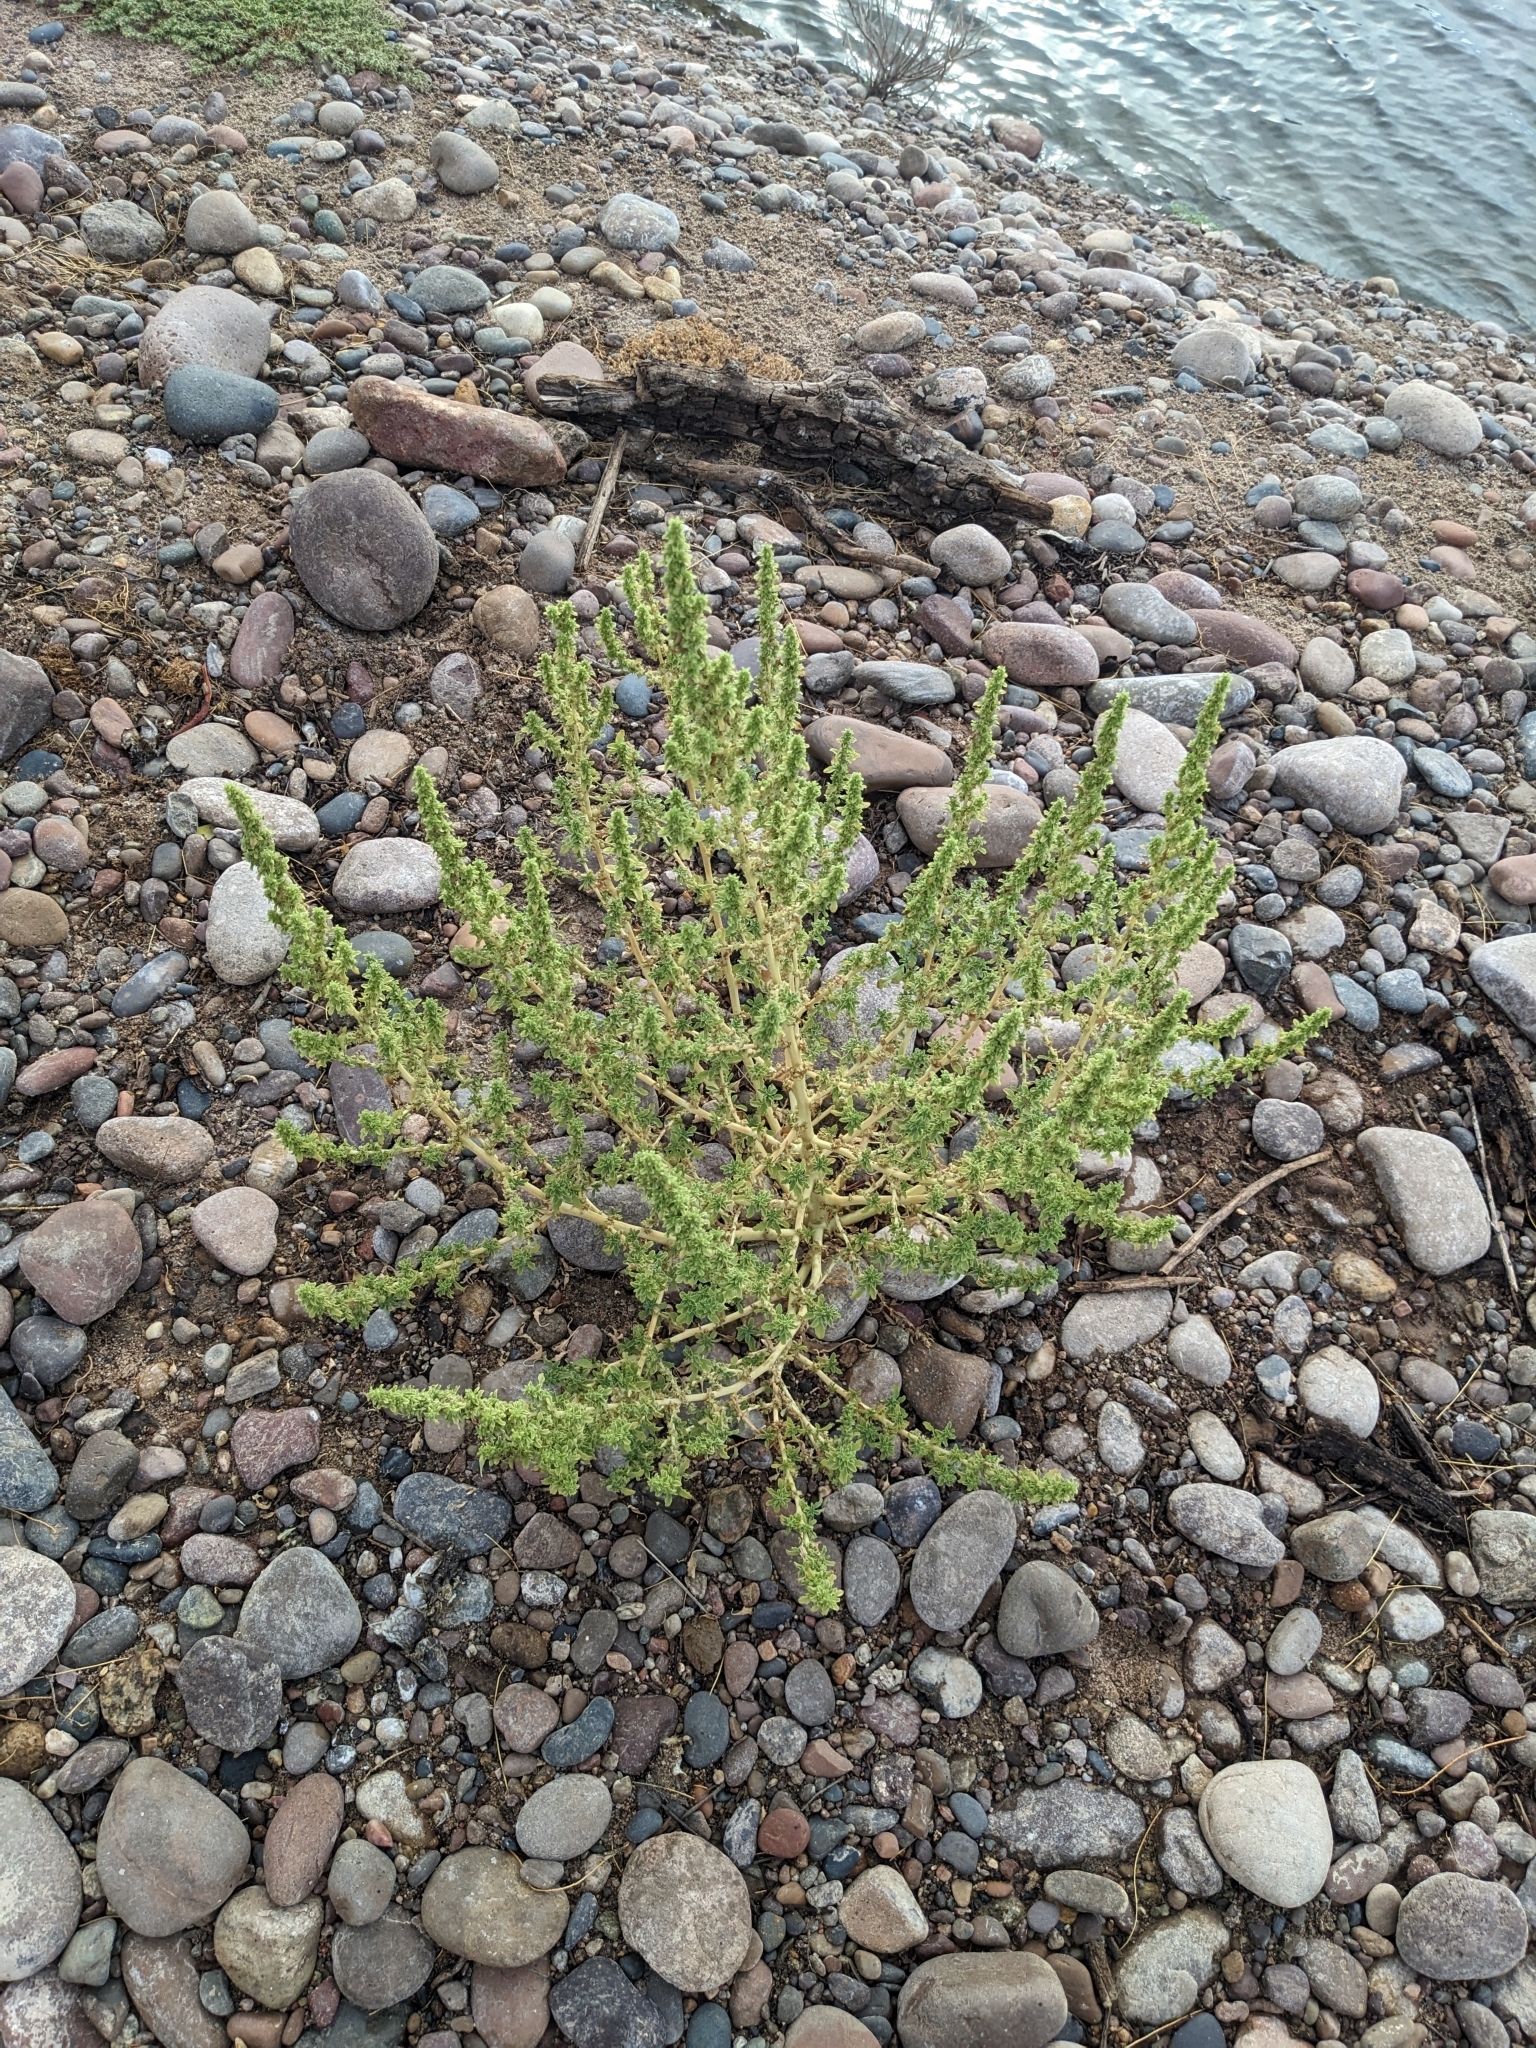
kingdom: Plantae
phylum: Tracheophyta
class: Magnoliopsida
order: Caryophyllales
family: Amaranthaceae
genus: Amaranthus
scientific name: Amaranthus albus
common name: White pigweed
